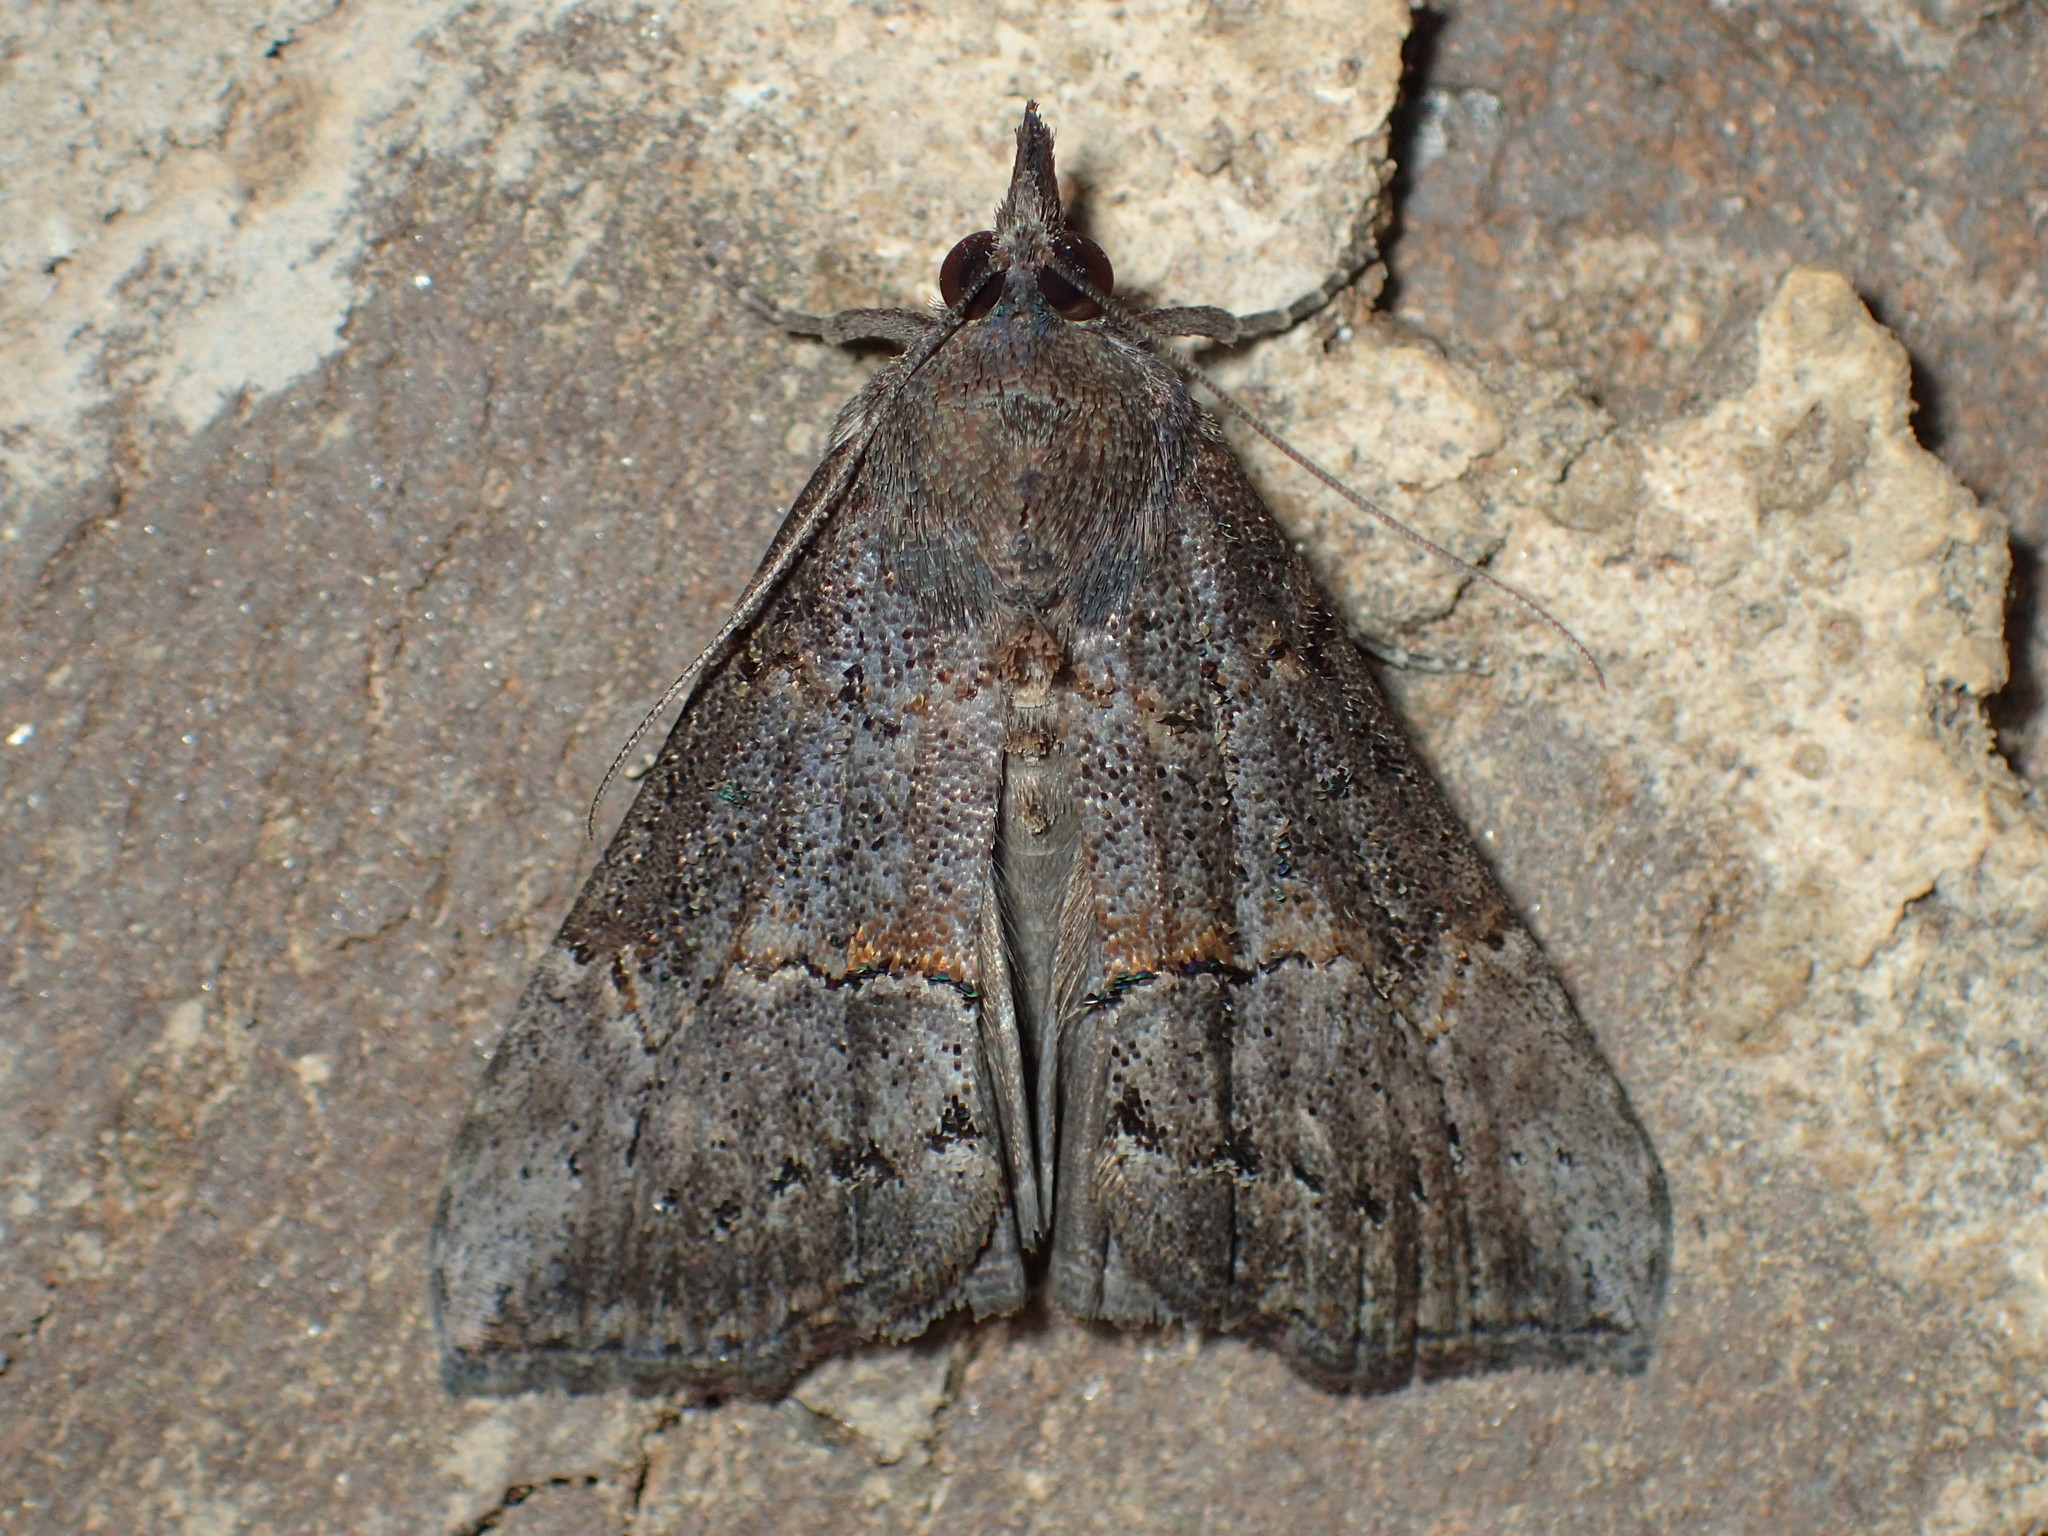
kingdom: Animalia
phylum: Arthropoda
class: Insecta
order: Lepidoptera
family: Erebidae
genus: Hypena
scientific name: Hypena scabra
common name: Green cloverworm
